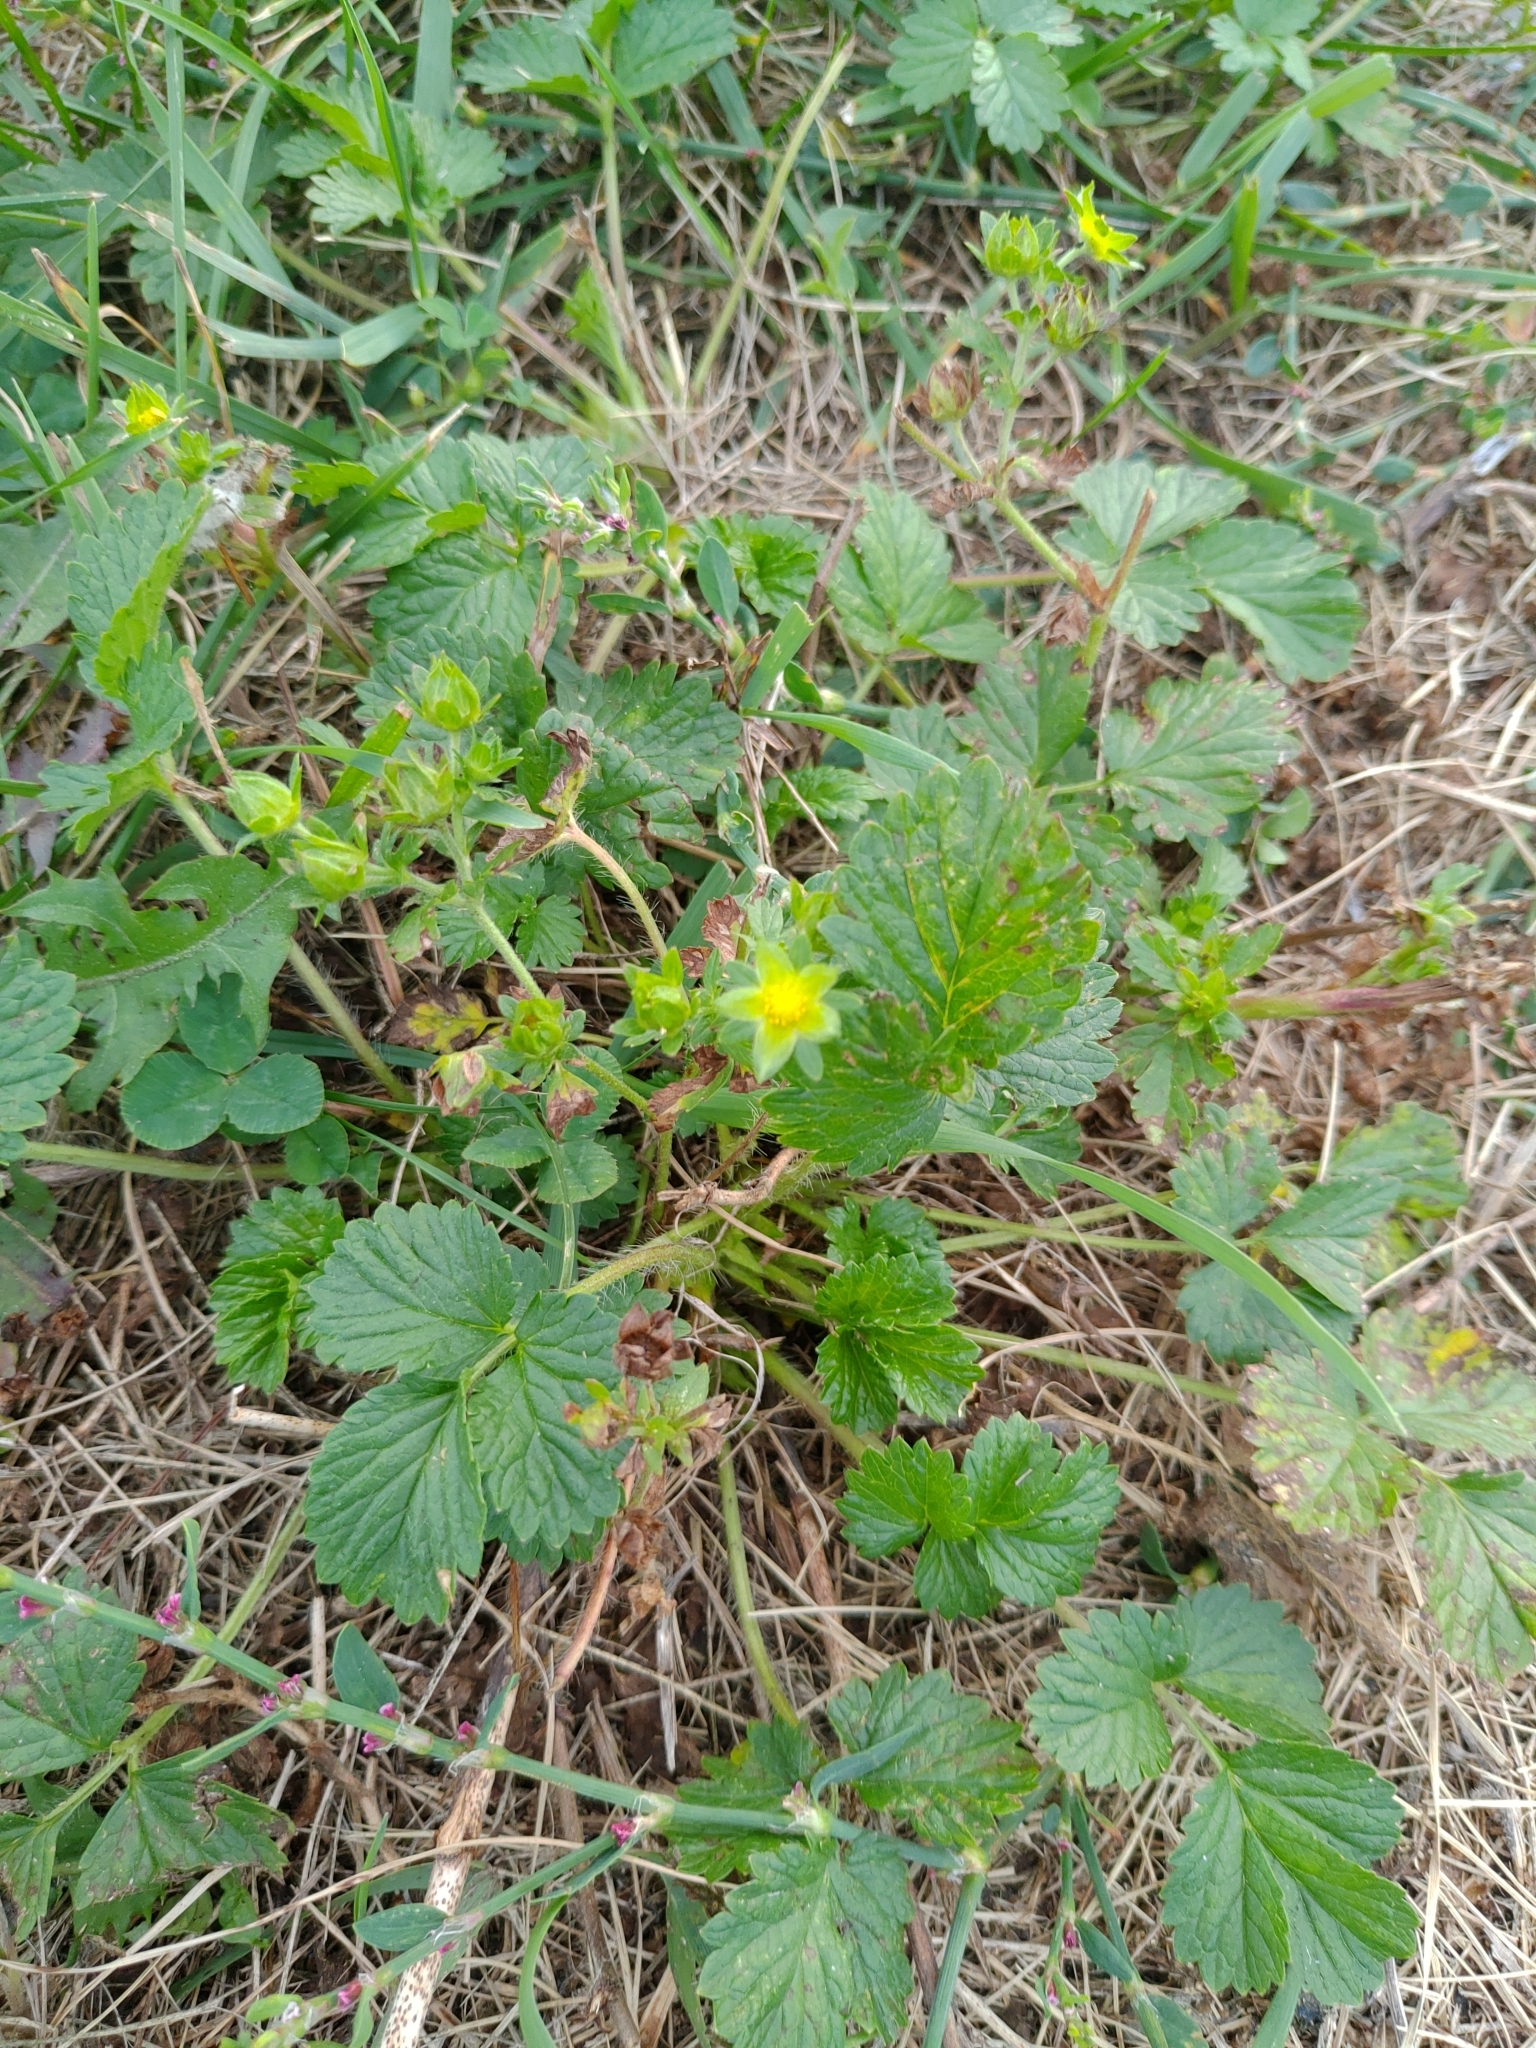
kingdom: Plantae
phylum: Tracheophyta
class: Magnoliopsida
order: Rosales
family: Rosaceae
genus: Potentilla
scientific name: Potentilla norvegica
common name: Ternate-leaved cinquefoil
